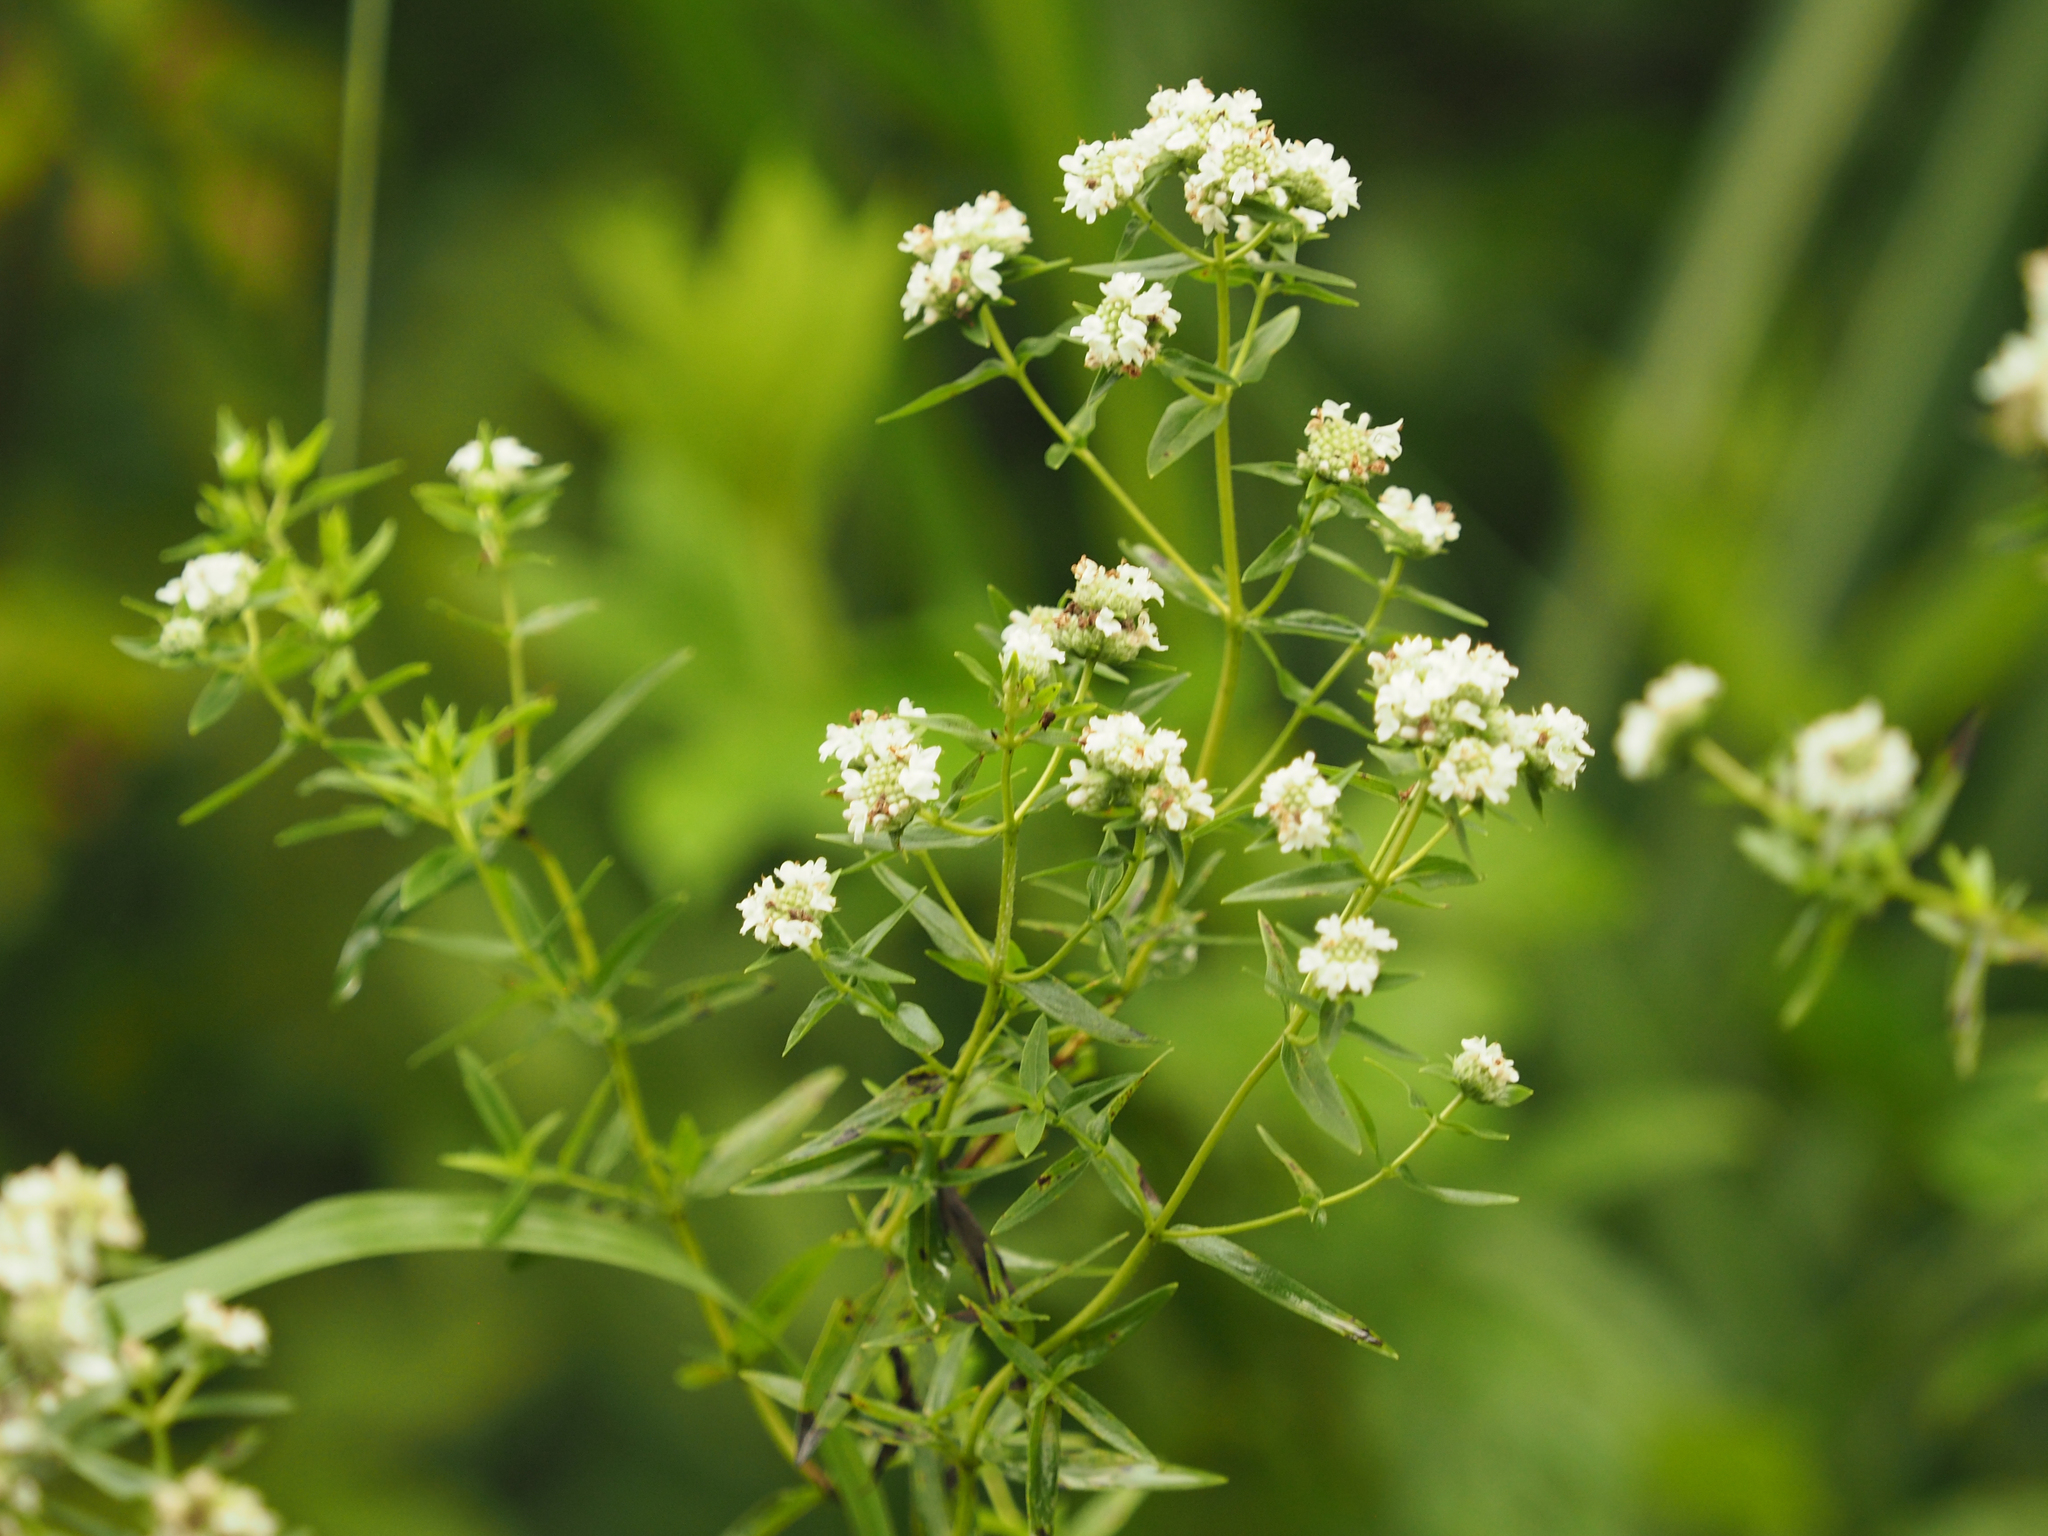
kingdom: Plantae
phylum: Tracheophyta
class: Magnoliopsida
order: Lamiales
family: Lamiaceae
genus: Pycnanthemum
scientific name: Pycnanthemum tenuifolium
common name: Narrow-leaf mountain-mint
